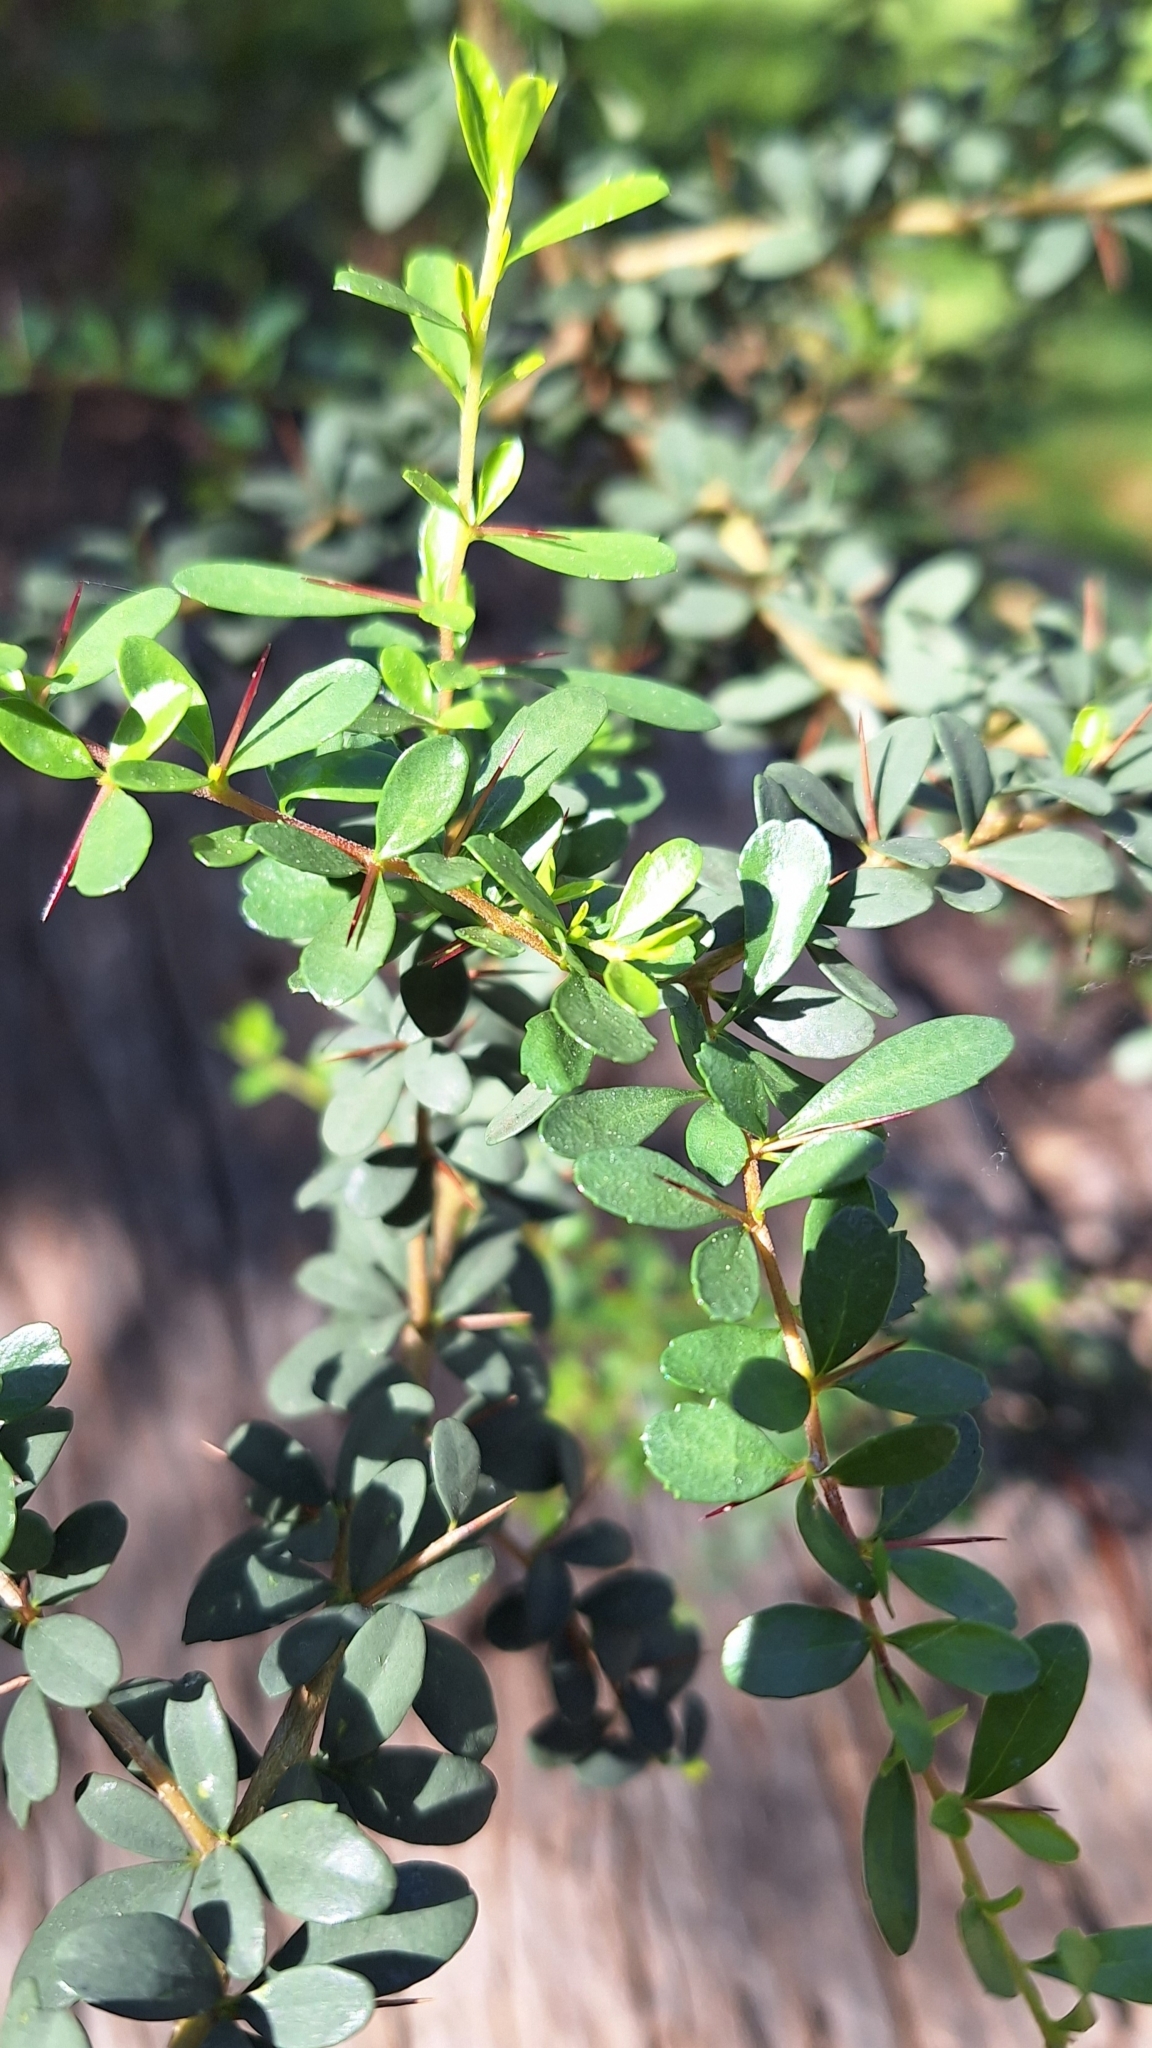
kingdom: Plantae
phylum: Tracheophyta
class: Magnoliopsida
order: Apiales
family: Pittosporaceae
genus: Bursaria
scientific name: Bursaria spinosa
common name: Australian blackthorn
